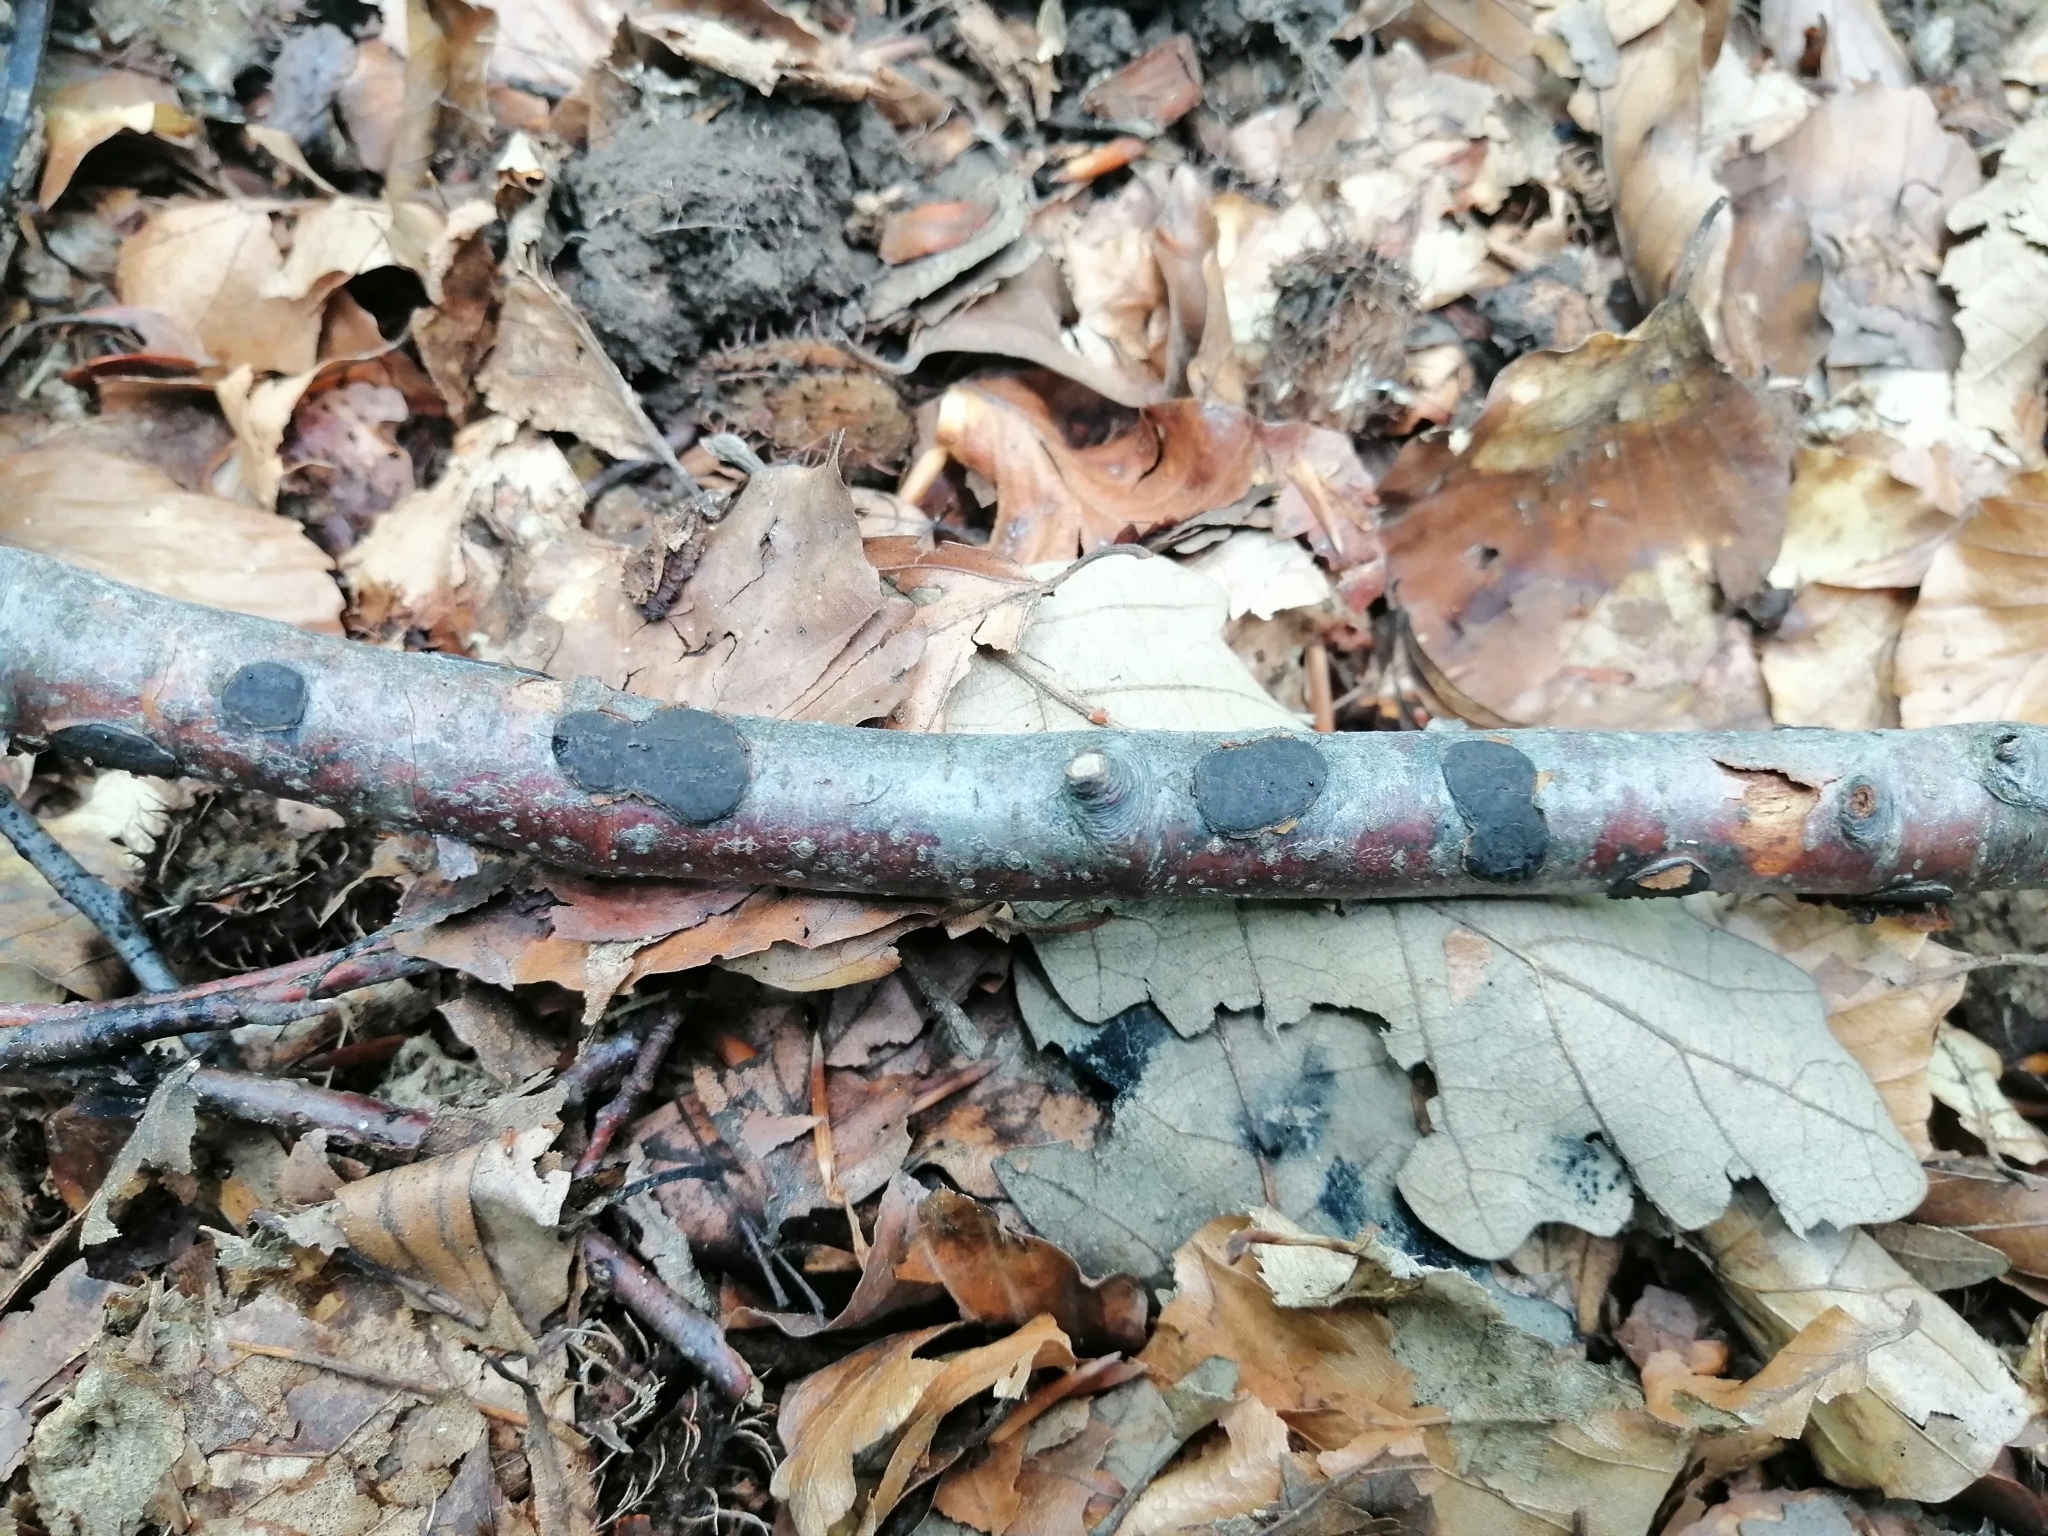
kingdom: Fungi
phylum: Ascomycota
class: Sordariomycetes
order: Xylariales
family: Graphostromataceae
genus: Biscogniauxia
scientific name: Biscogniauxia nummularia
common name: Beech tarcrust
